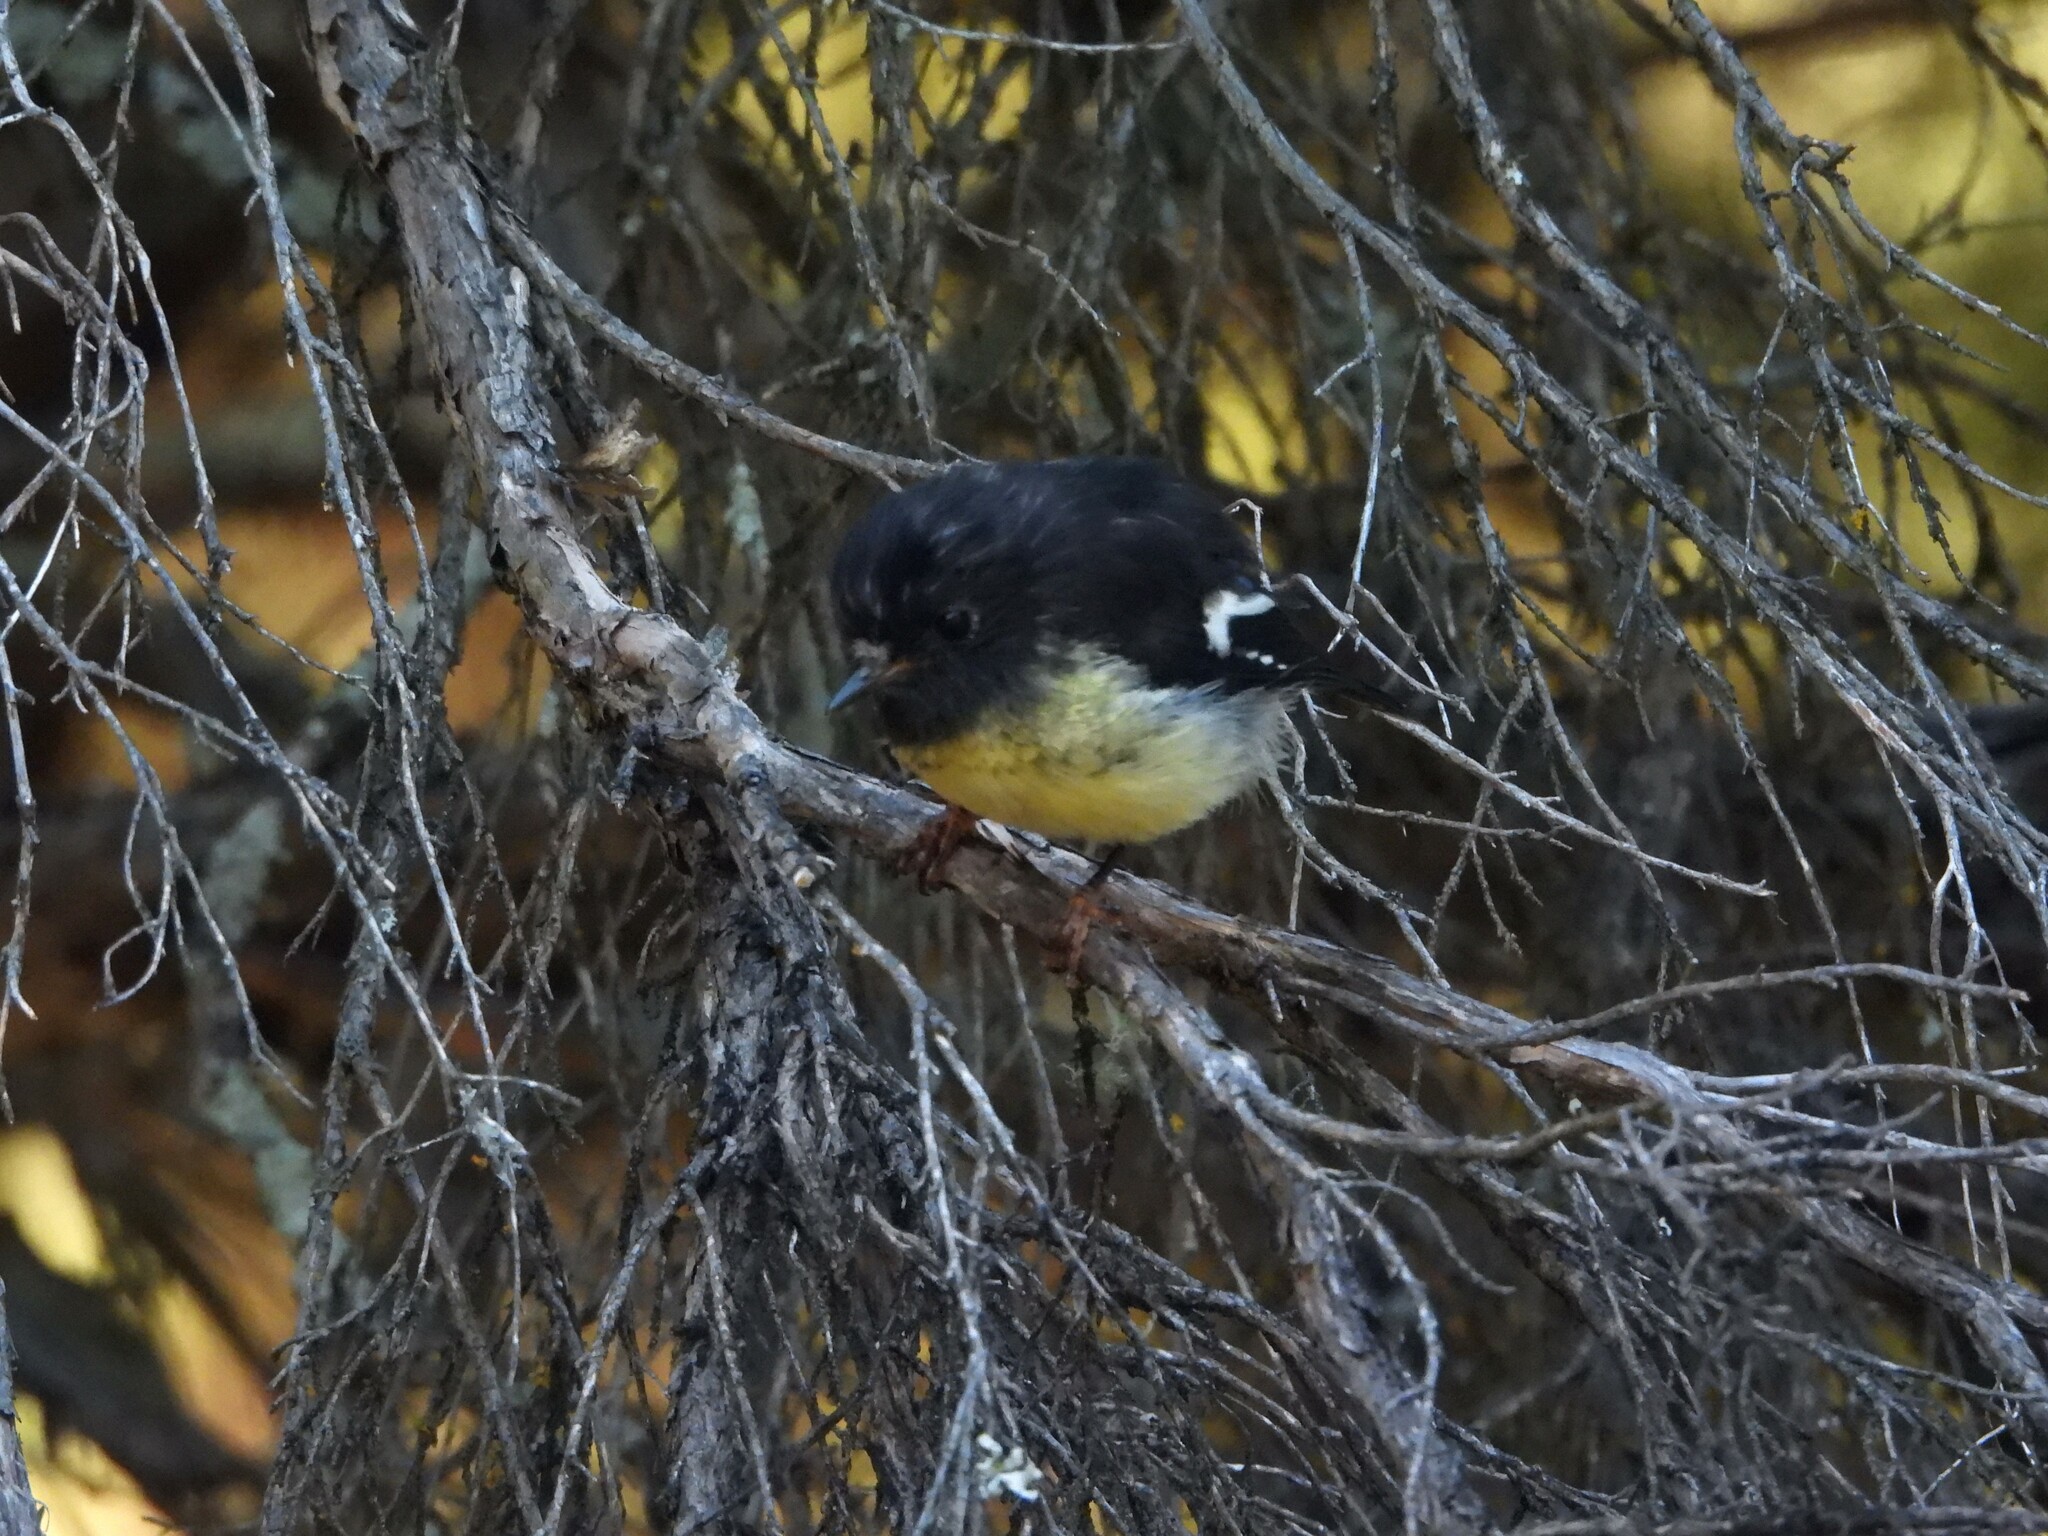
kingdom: Animalia
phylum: Chordata
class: Aves
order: Passeriformes
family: Petroicidae
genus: Petroica
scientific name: Petroica macrocephala
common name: Tomtit
